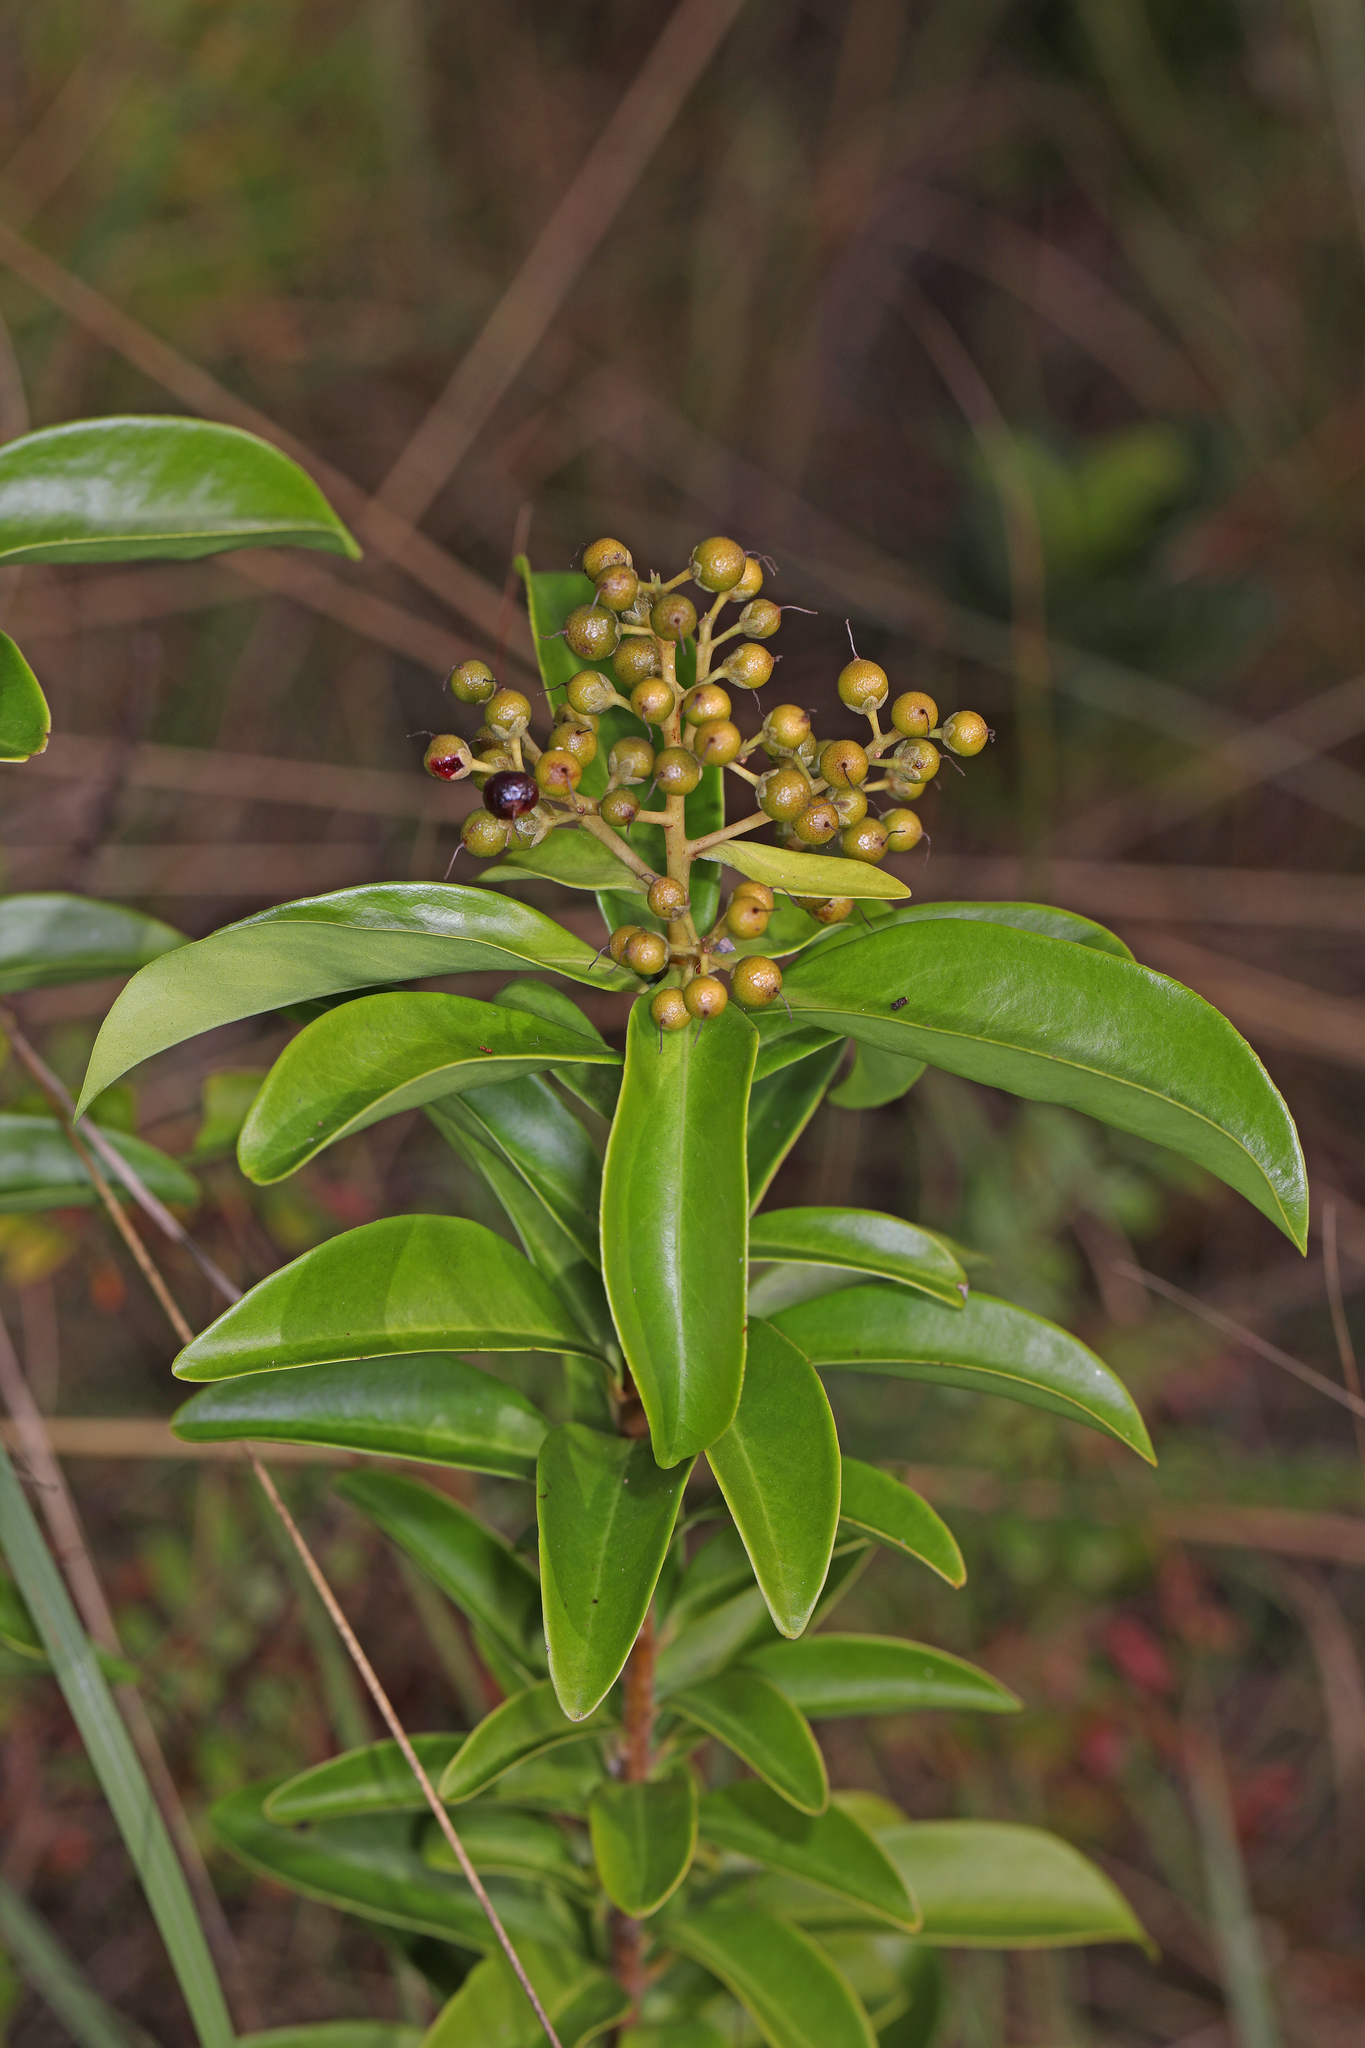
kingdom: Plantae
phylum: Tracheophyta
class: Magnoliopsida
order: Ericales
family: Primulaceae
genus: Ardisia
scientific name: Ardisia escallonioides
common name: Island marlberry
